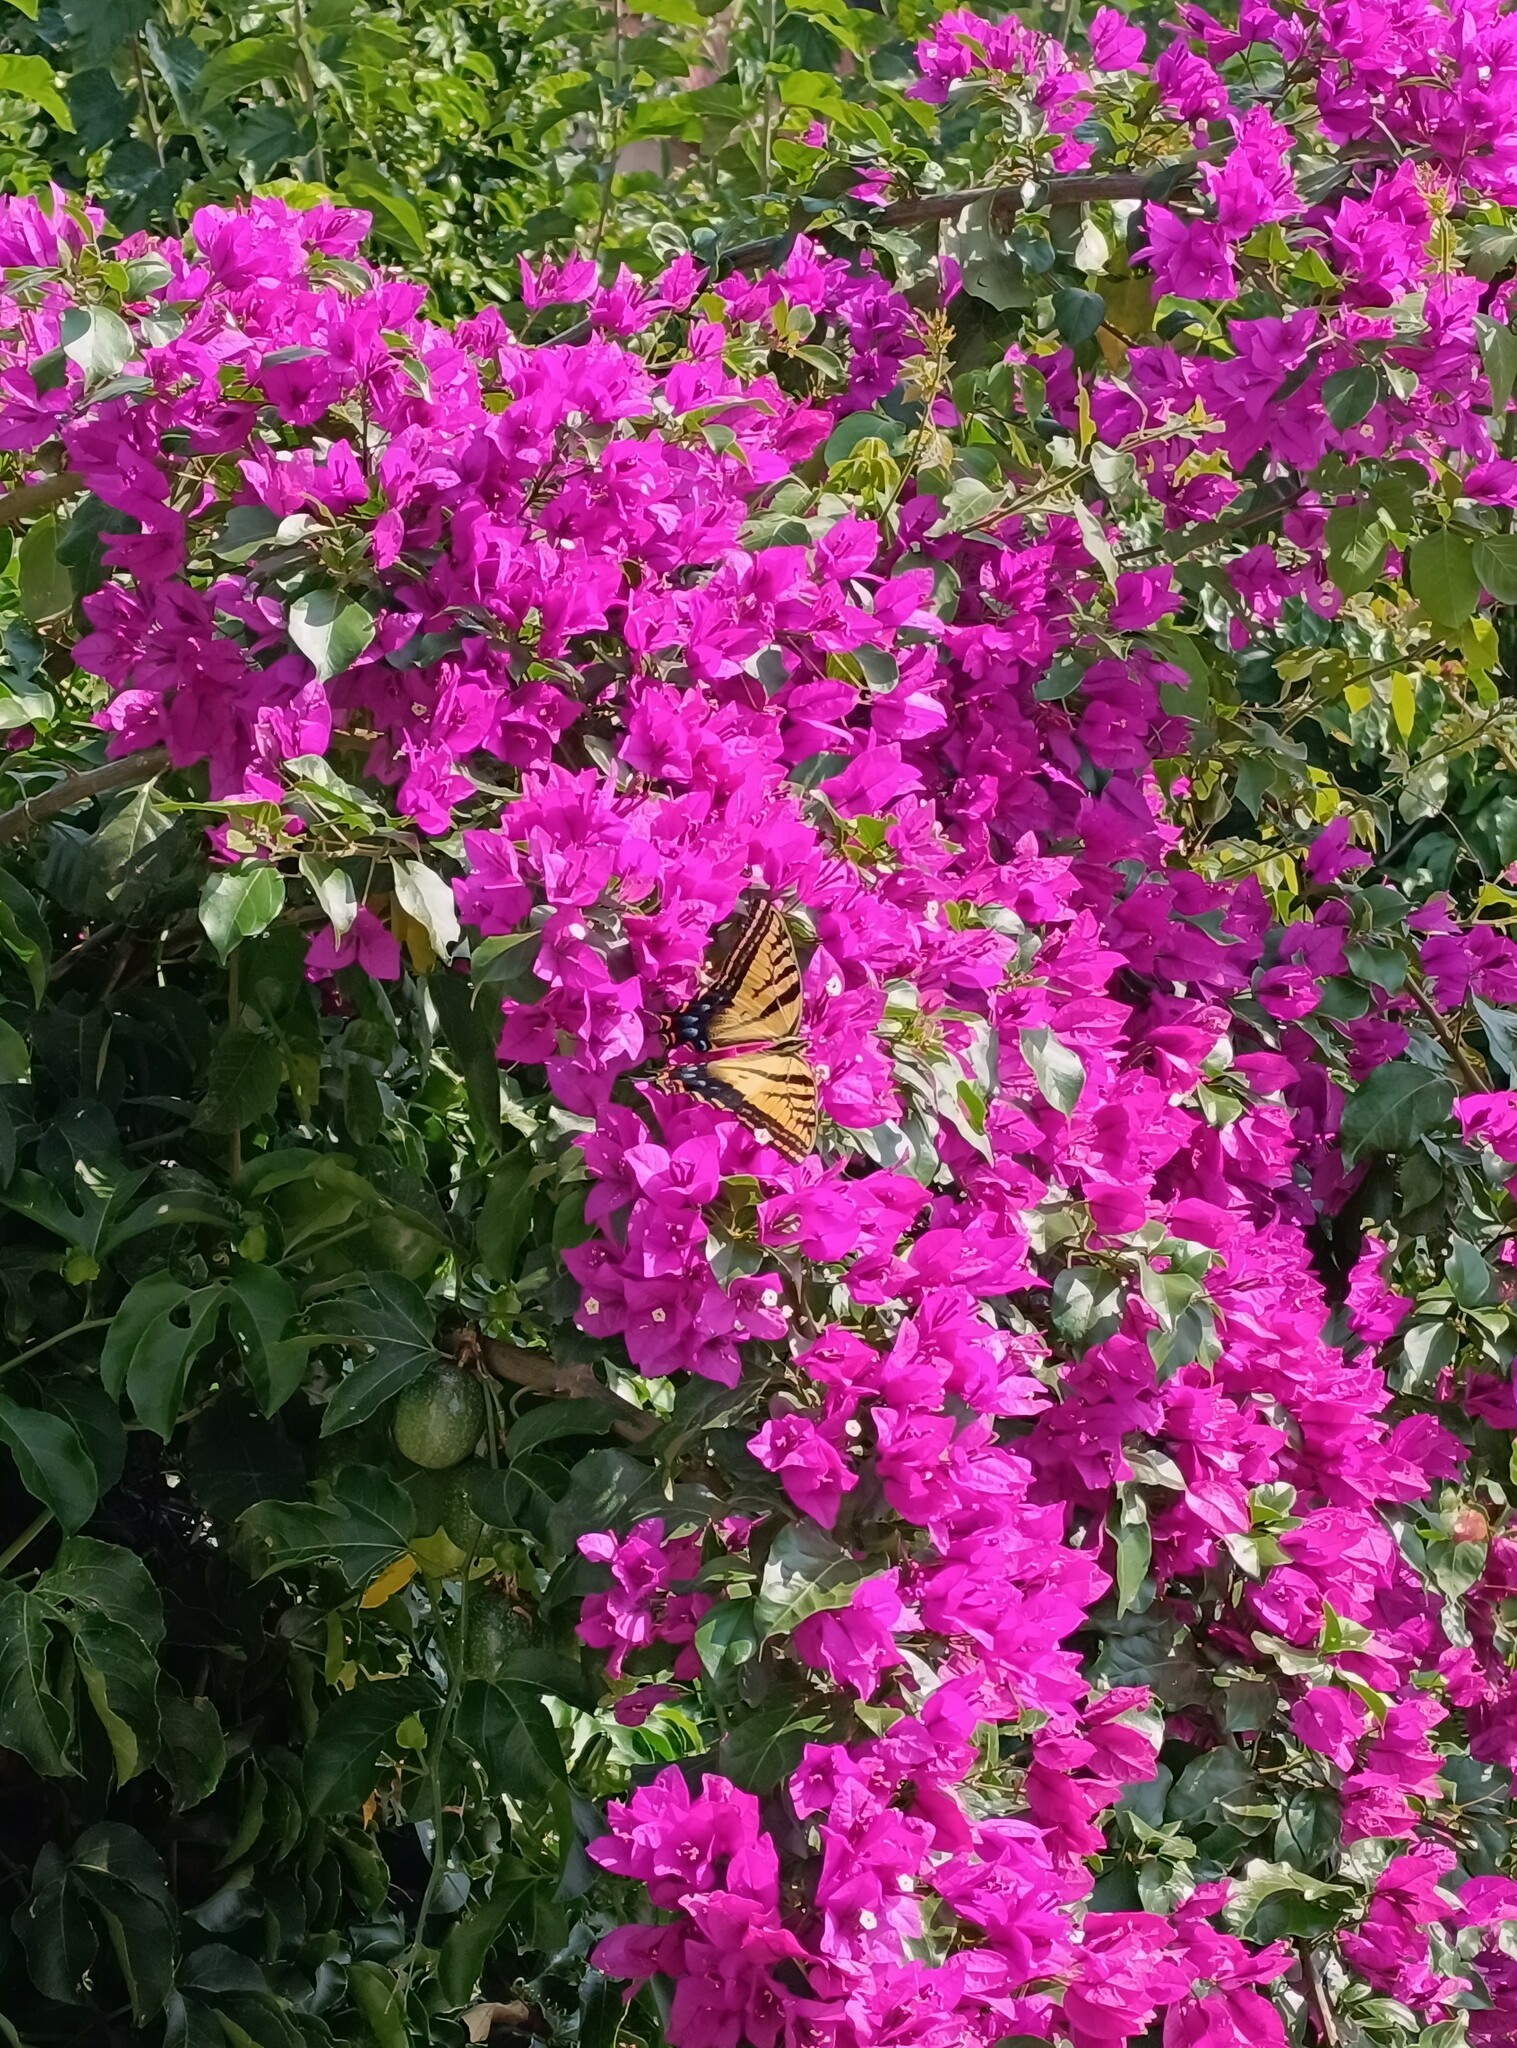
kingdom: Animalia
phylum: Arthropoda
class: Insecta
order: Lepidoptera
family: Papilionidae
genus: Papilio
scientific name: Papilio multicaudata
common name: Two-tailed tiger swallowtail
